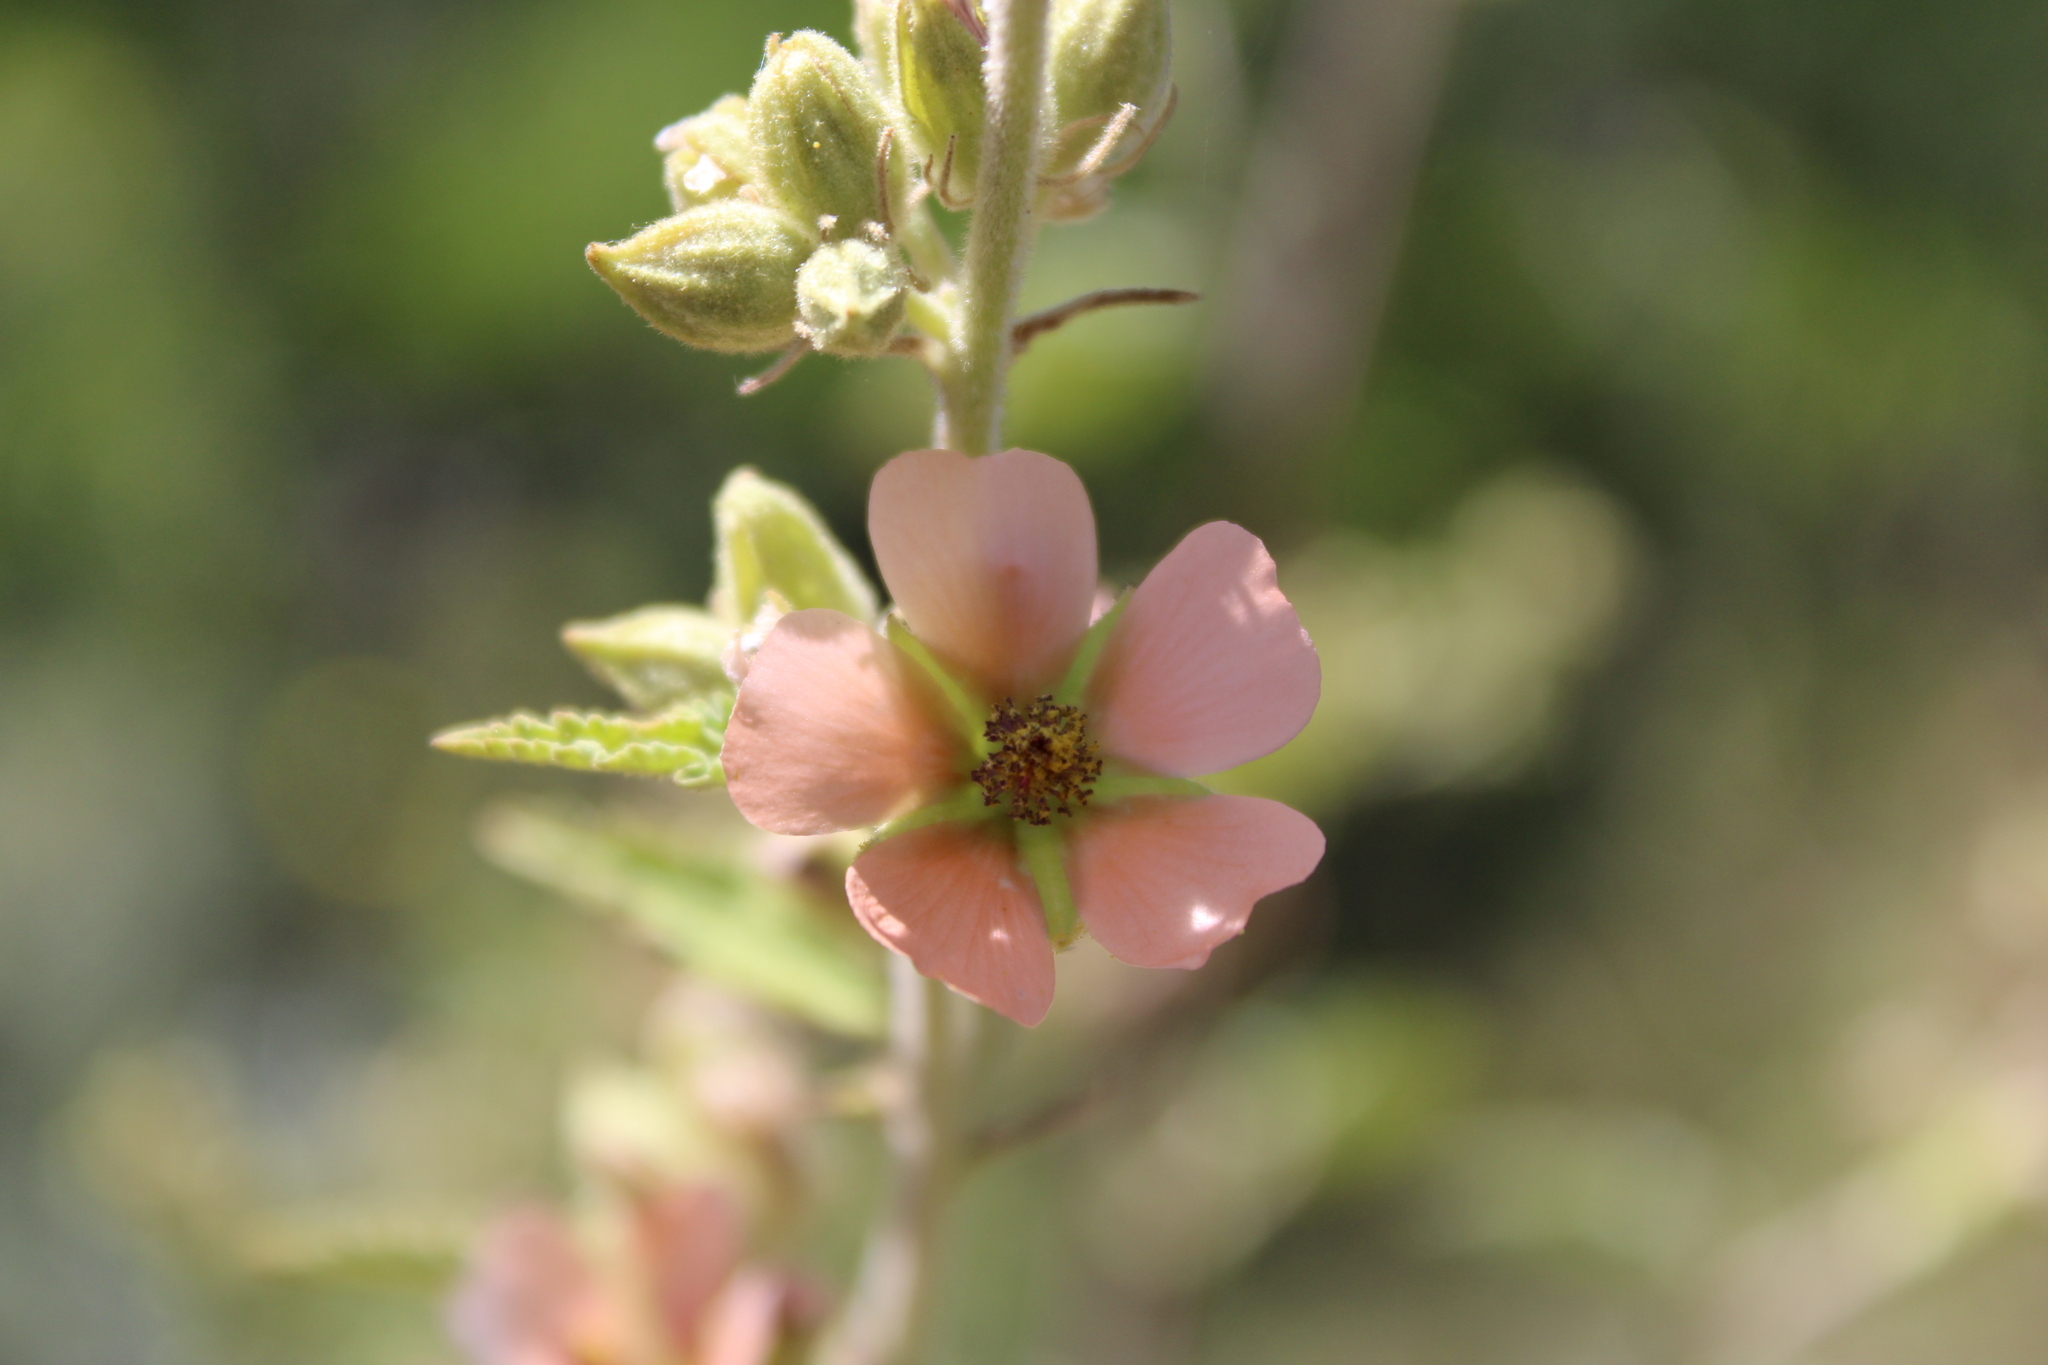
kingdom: Plantae
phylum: Tracheophyta
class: Magnoliopsida
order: Malvales
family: Malvaceae
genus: Sphaeralcea
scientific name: Sphaeralcea bonariensis
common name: Latin globemallow
